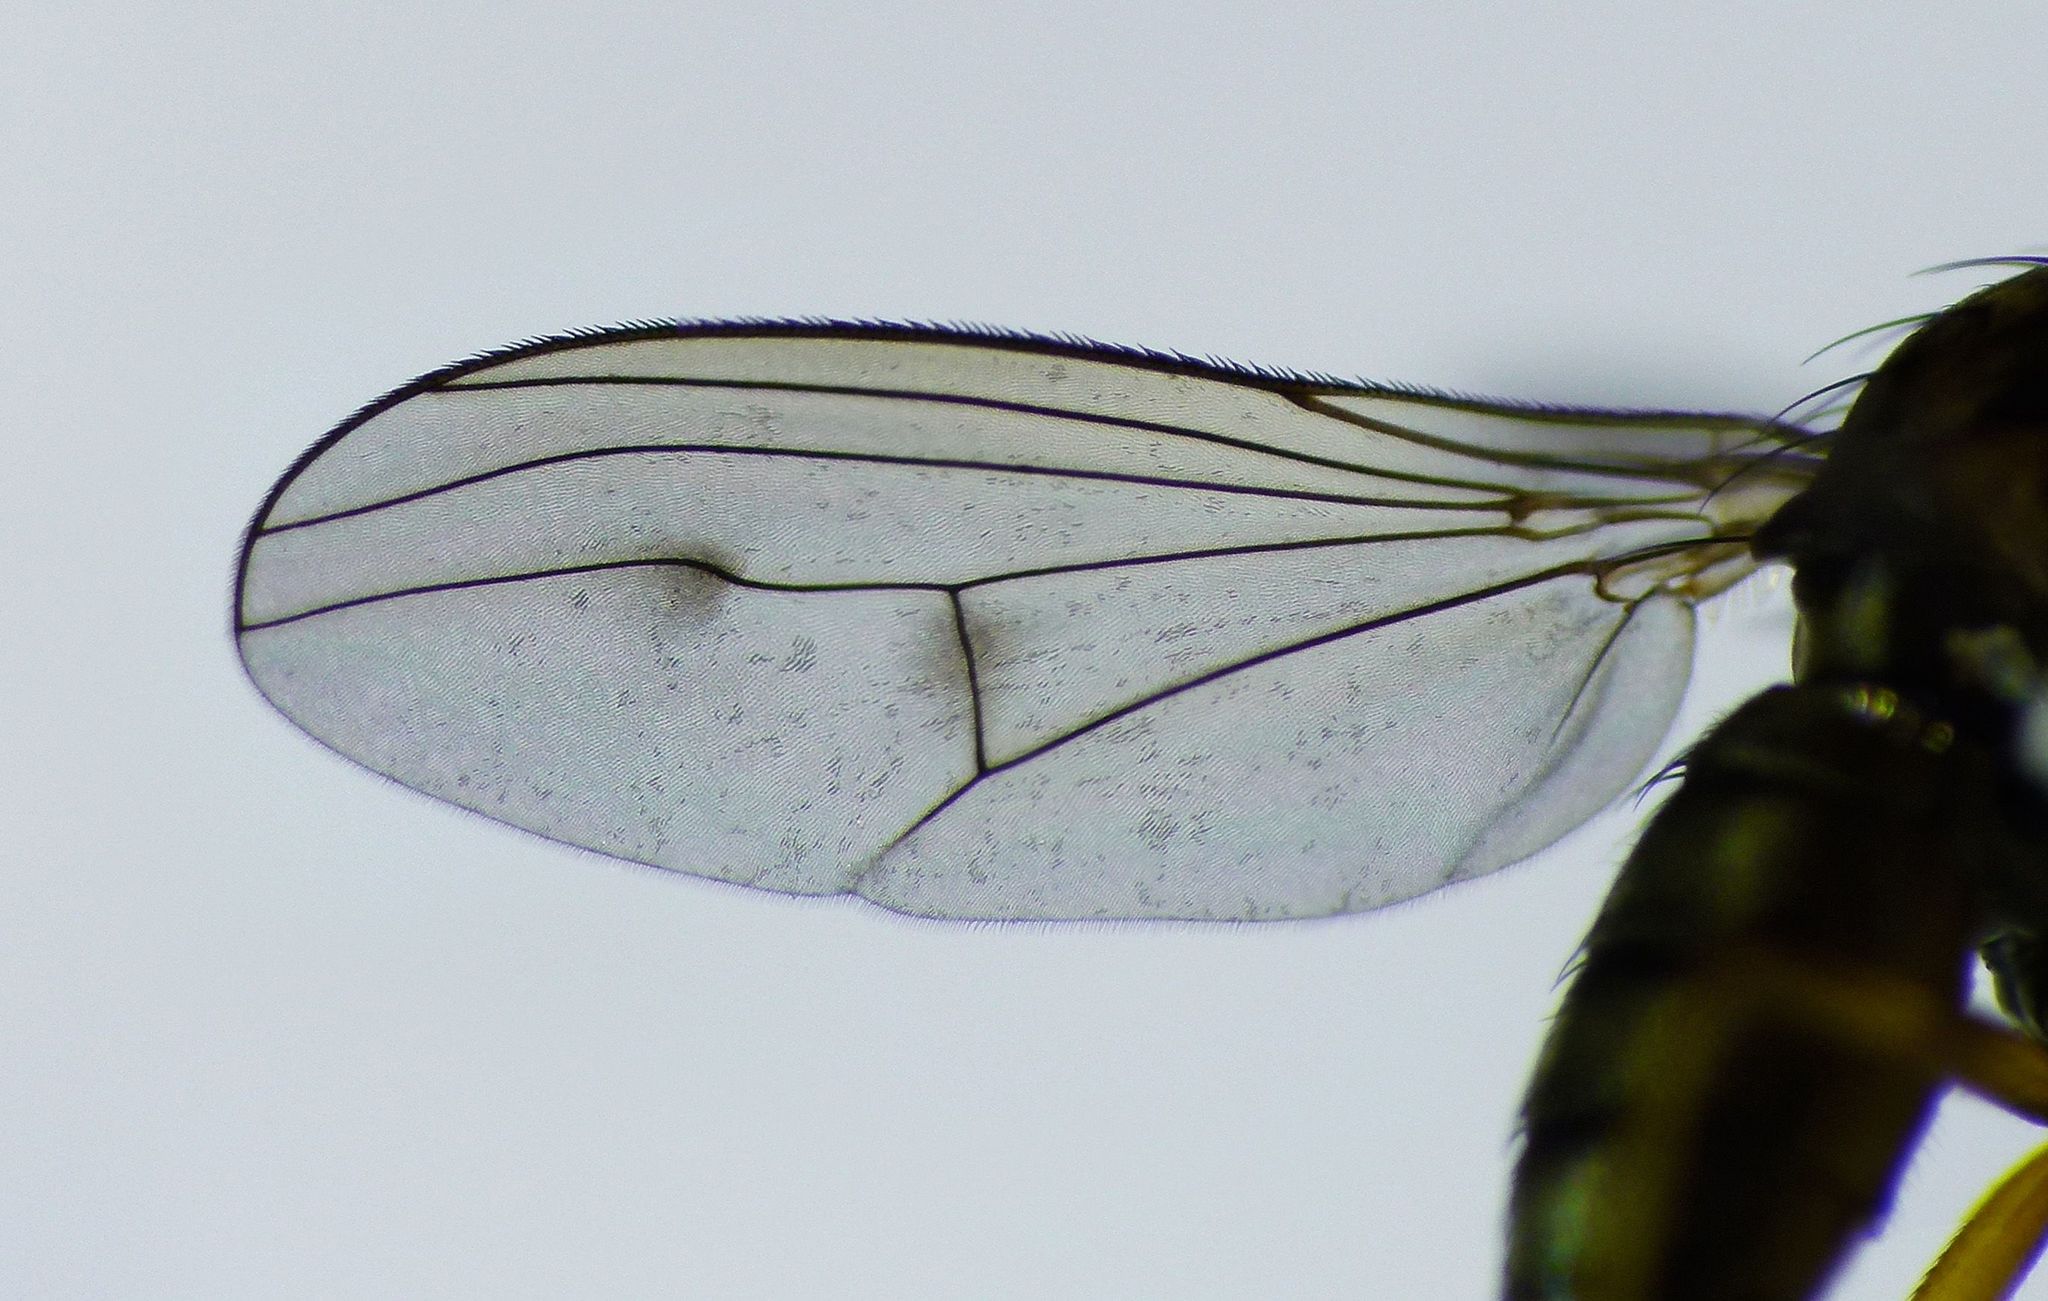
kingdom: Animalia
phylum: Arthropoda
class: Insecta
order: Diptera
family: Dolichopodidae
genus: Helichochaetus
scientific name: Helichochaetus discifer
